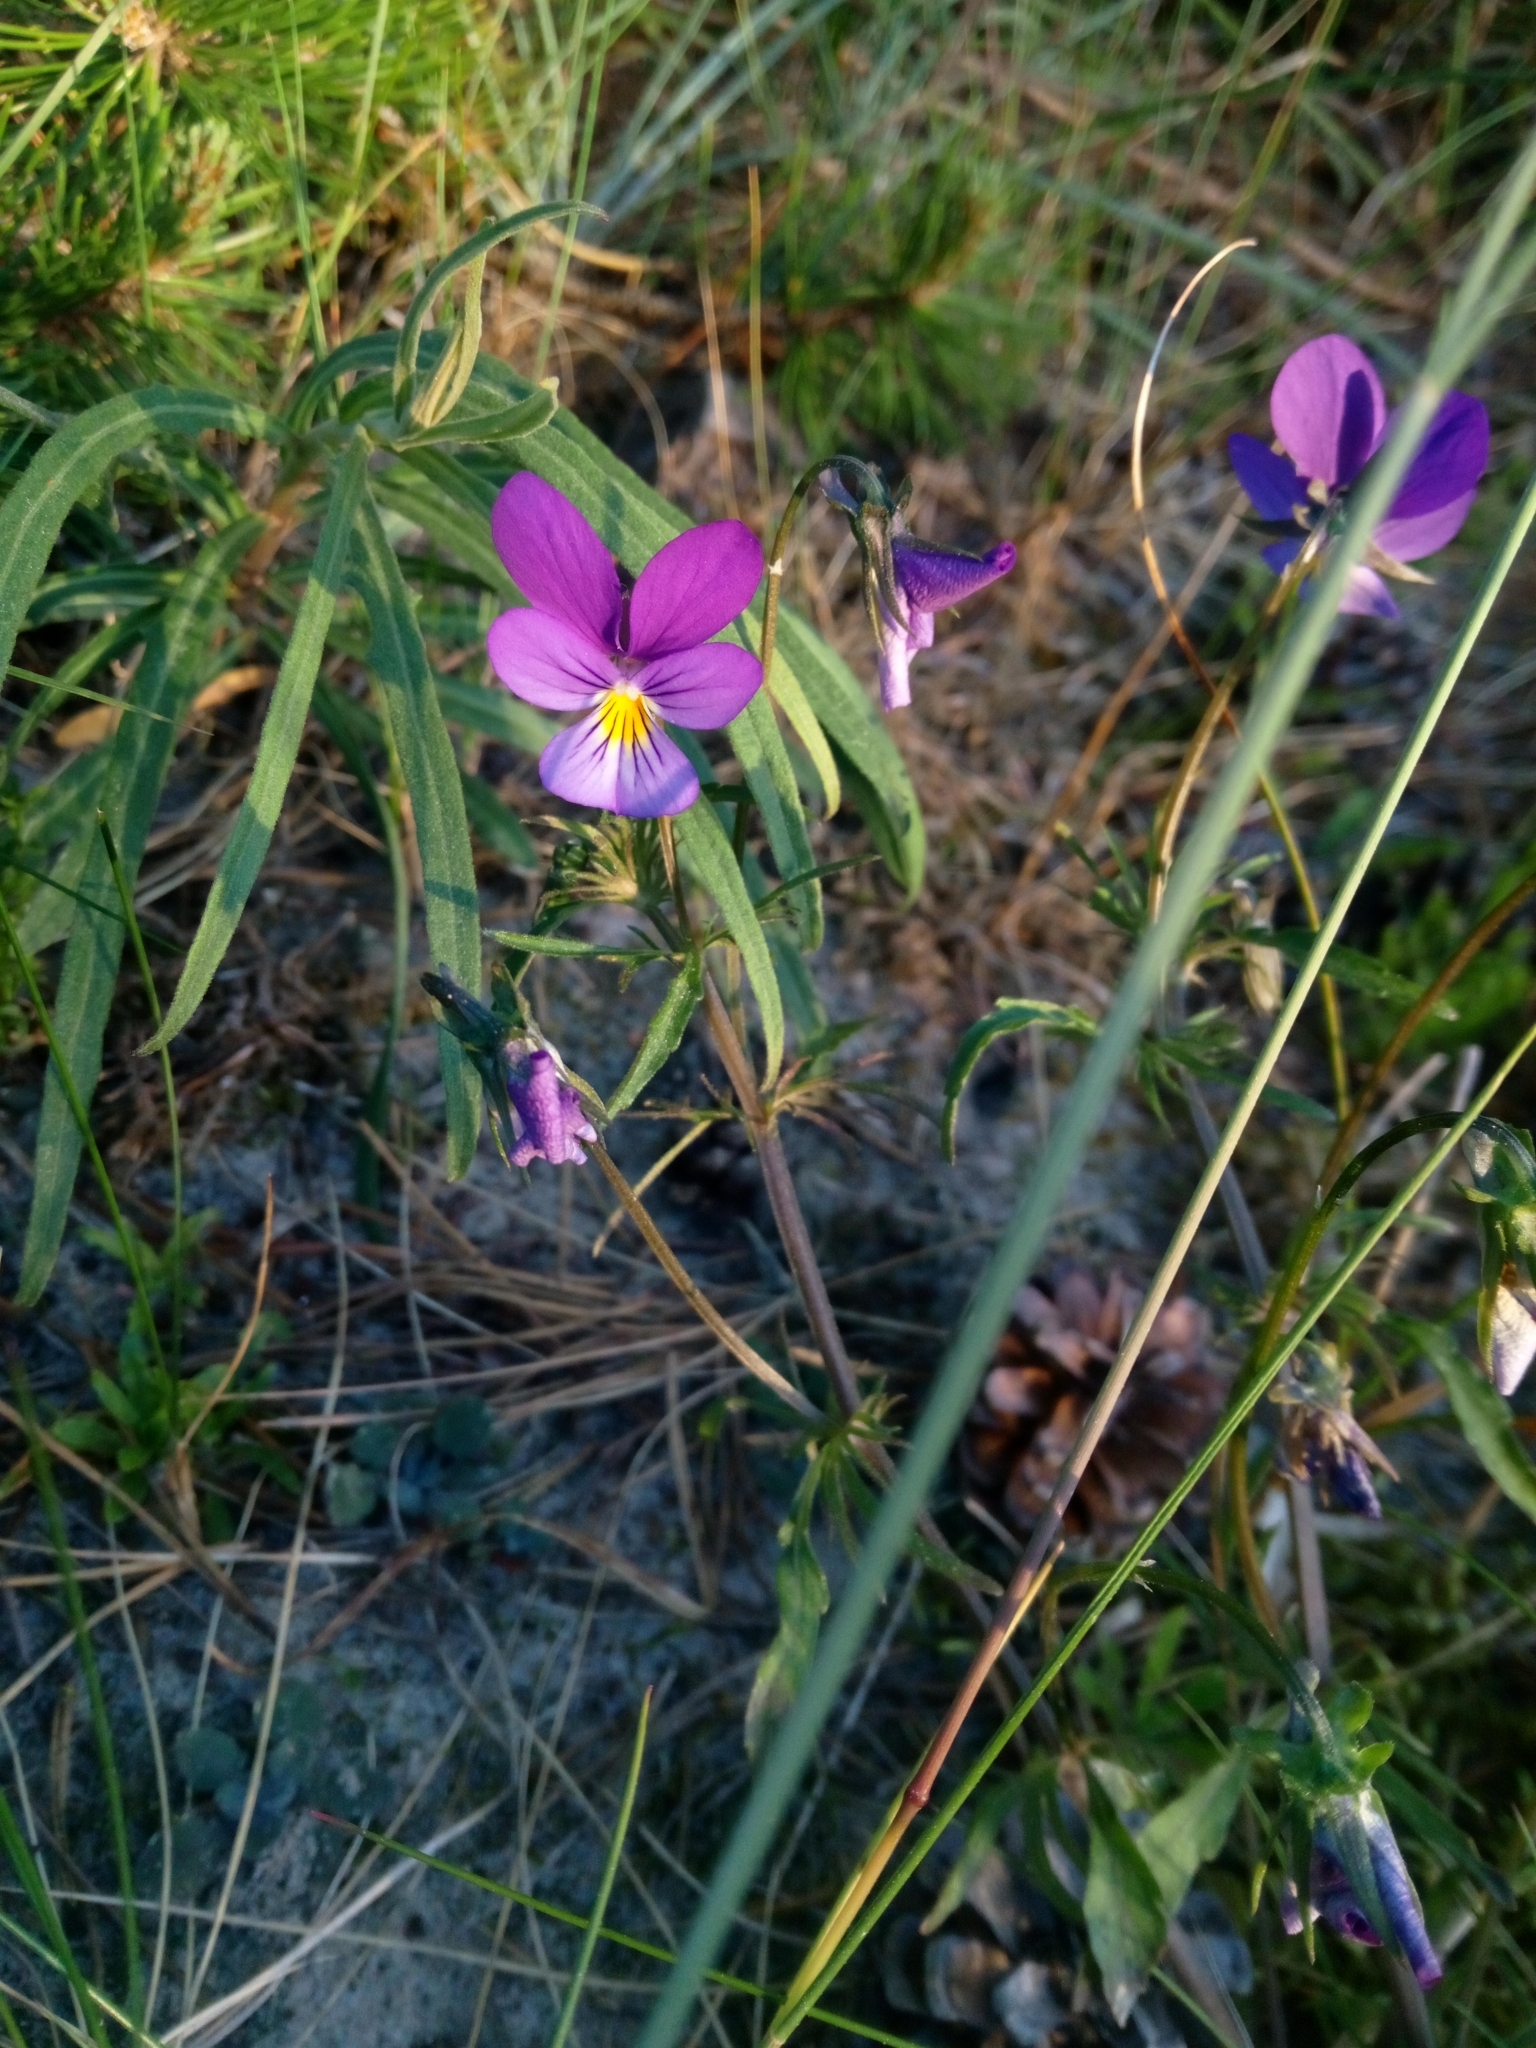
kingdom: Plantae
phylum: Tracheophyta
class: Magnoliopsida
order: Malpighiales
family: Violaceae
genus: Viola
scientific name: Viola tricolor
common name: Pansy
